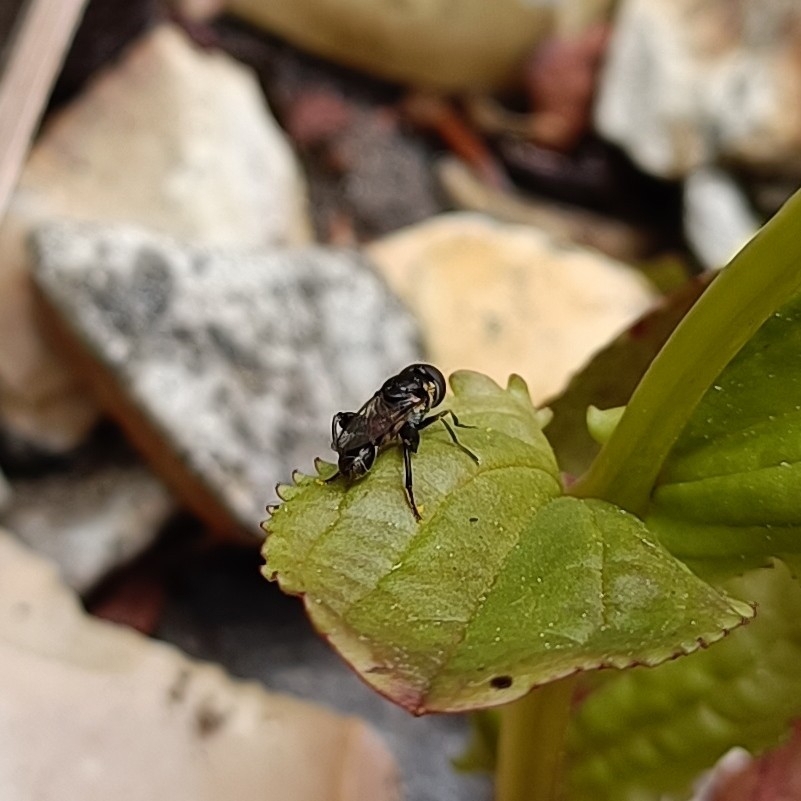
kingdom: Animalia
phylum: Arthropoda
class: Insecta
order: Diptera
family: Syrphidae
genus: Syritta
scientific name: Syritta pipiens
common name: Hover fly
